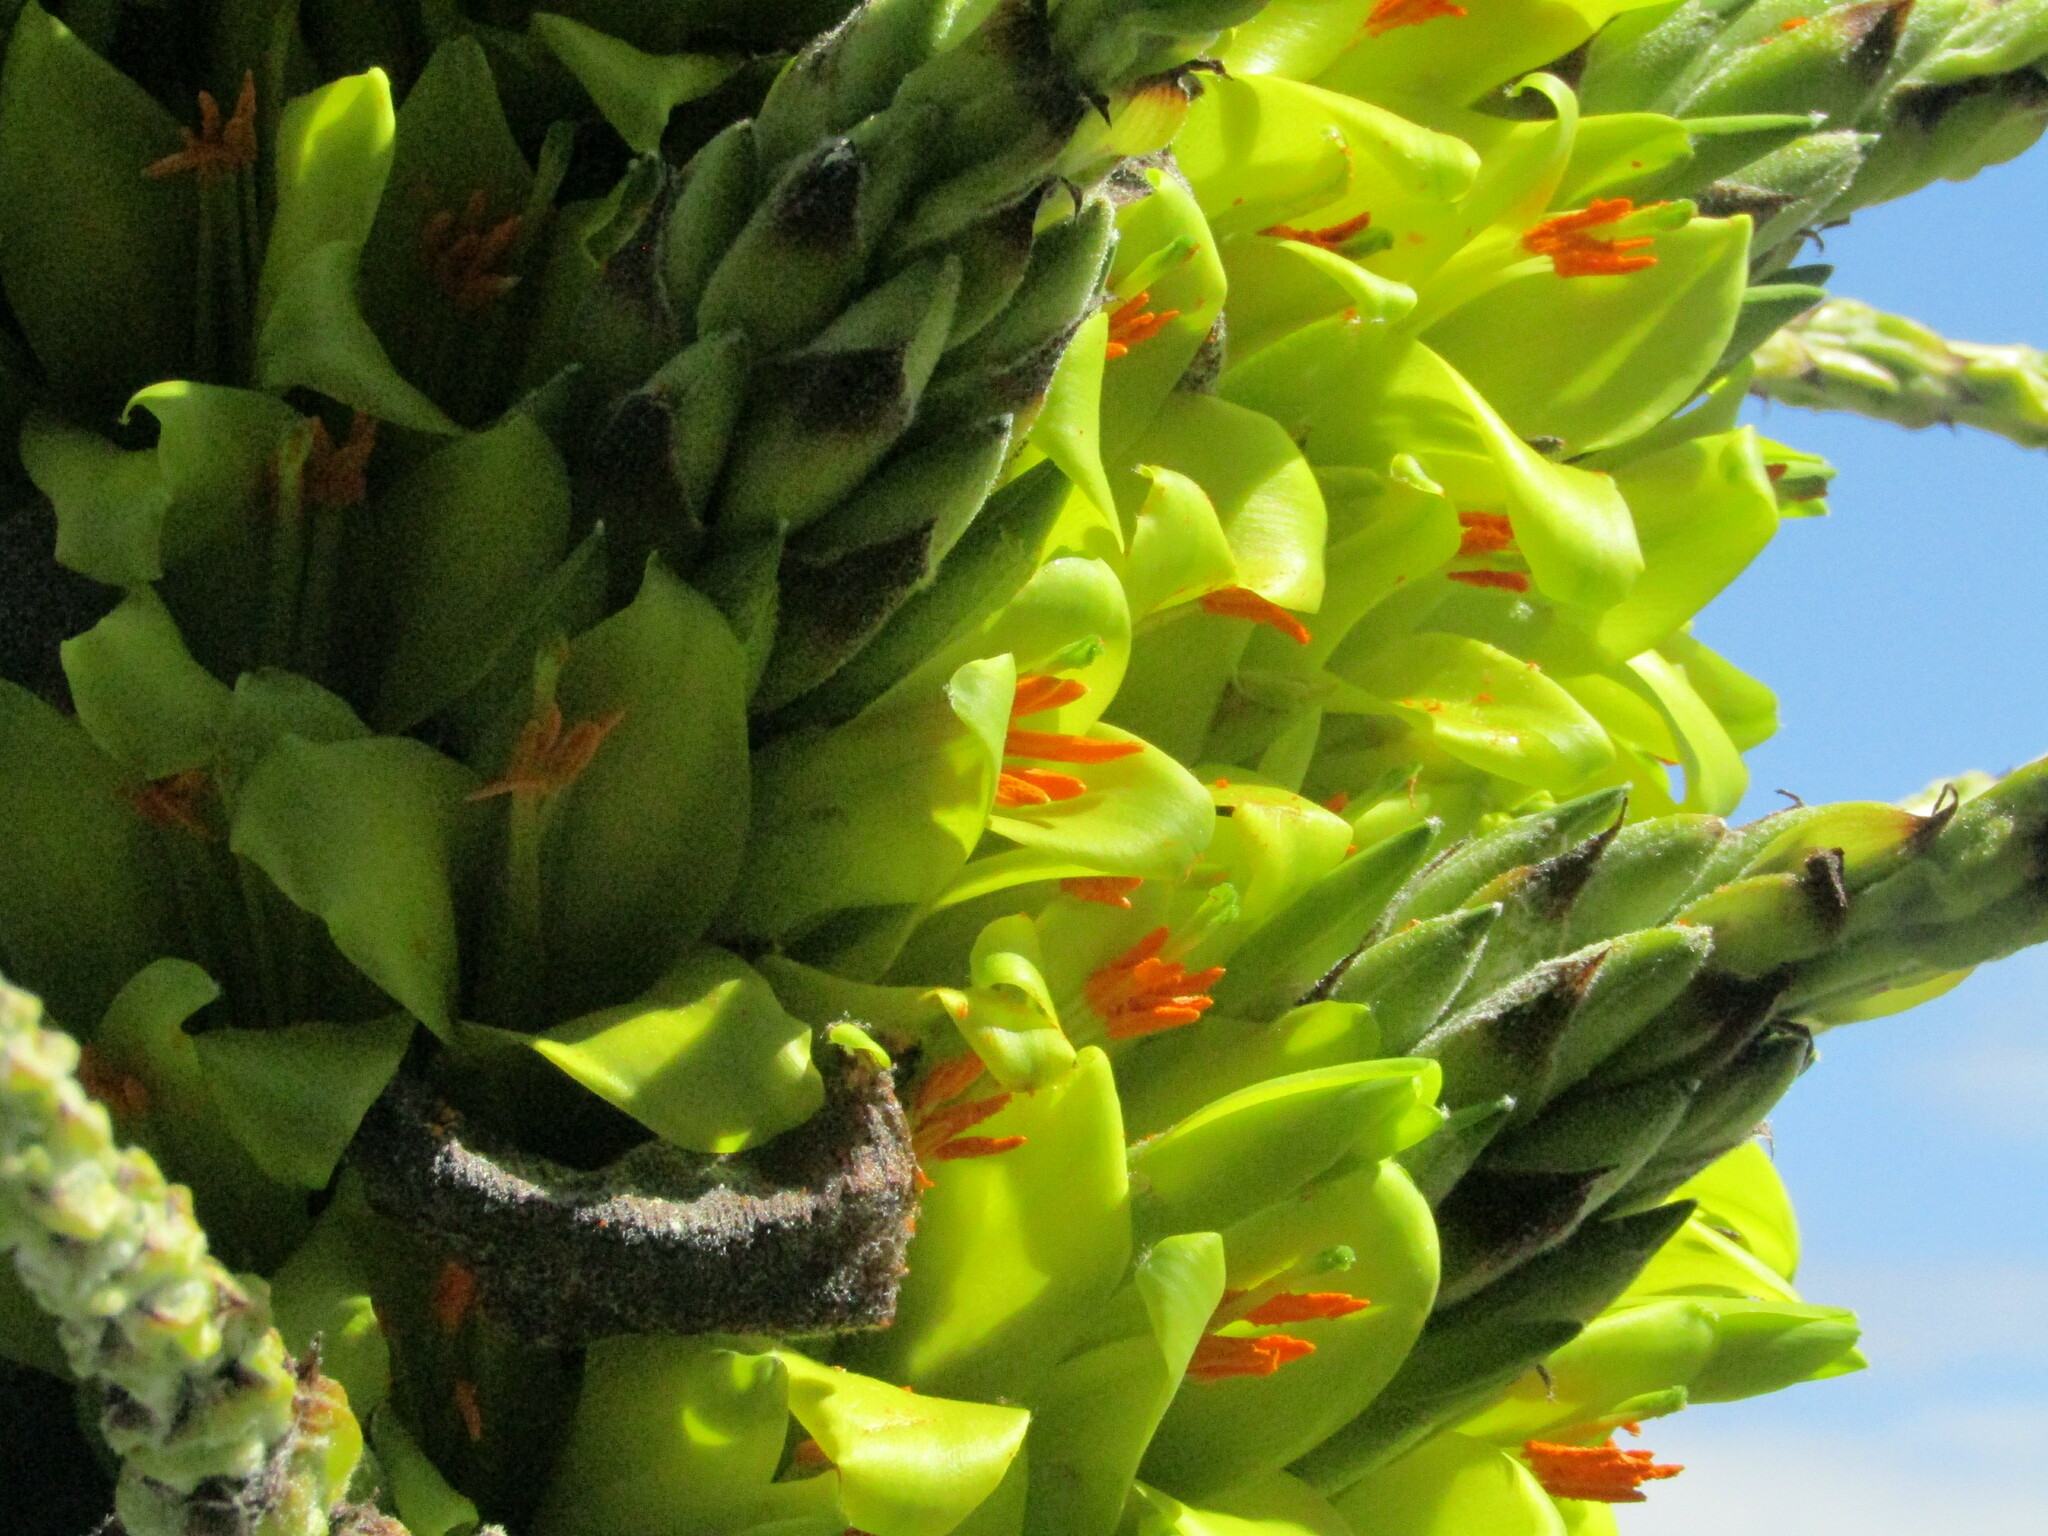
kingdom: Plantae
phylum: Tracheophyta
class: Liliopsida
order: Poales
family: Bromeliaceae
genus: Puya
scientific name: Puya chilensis
